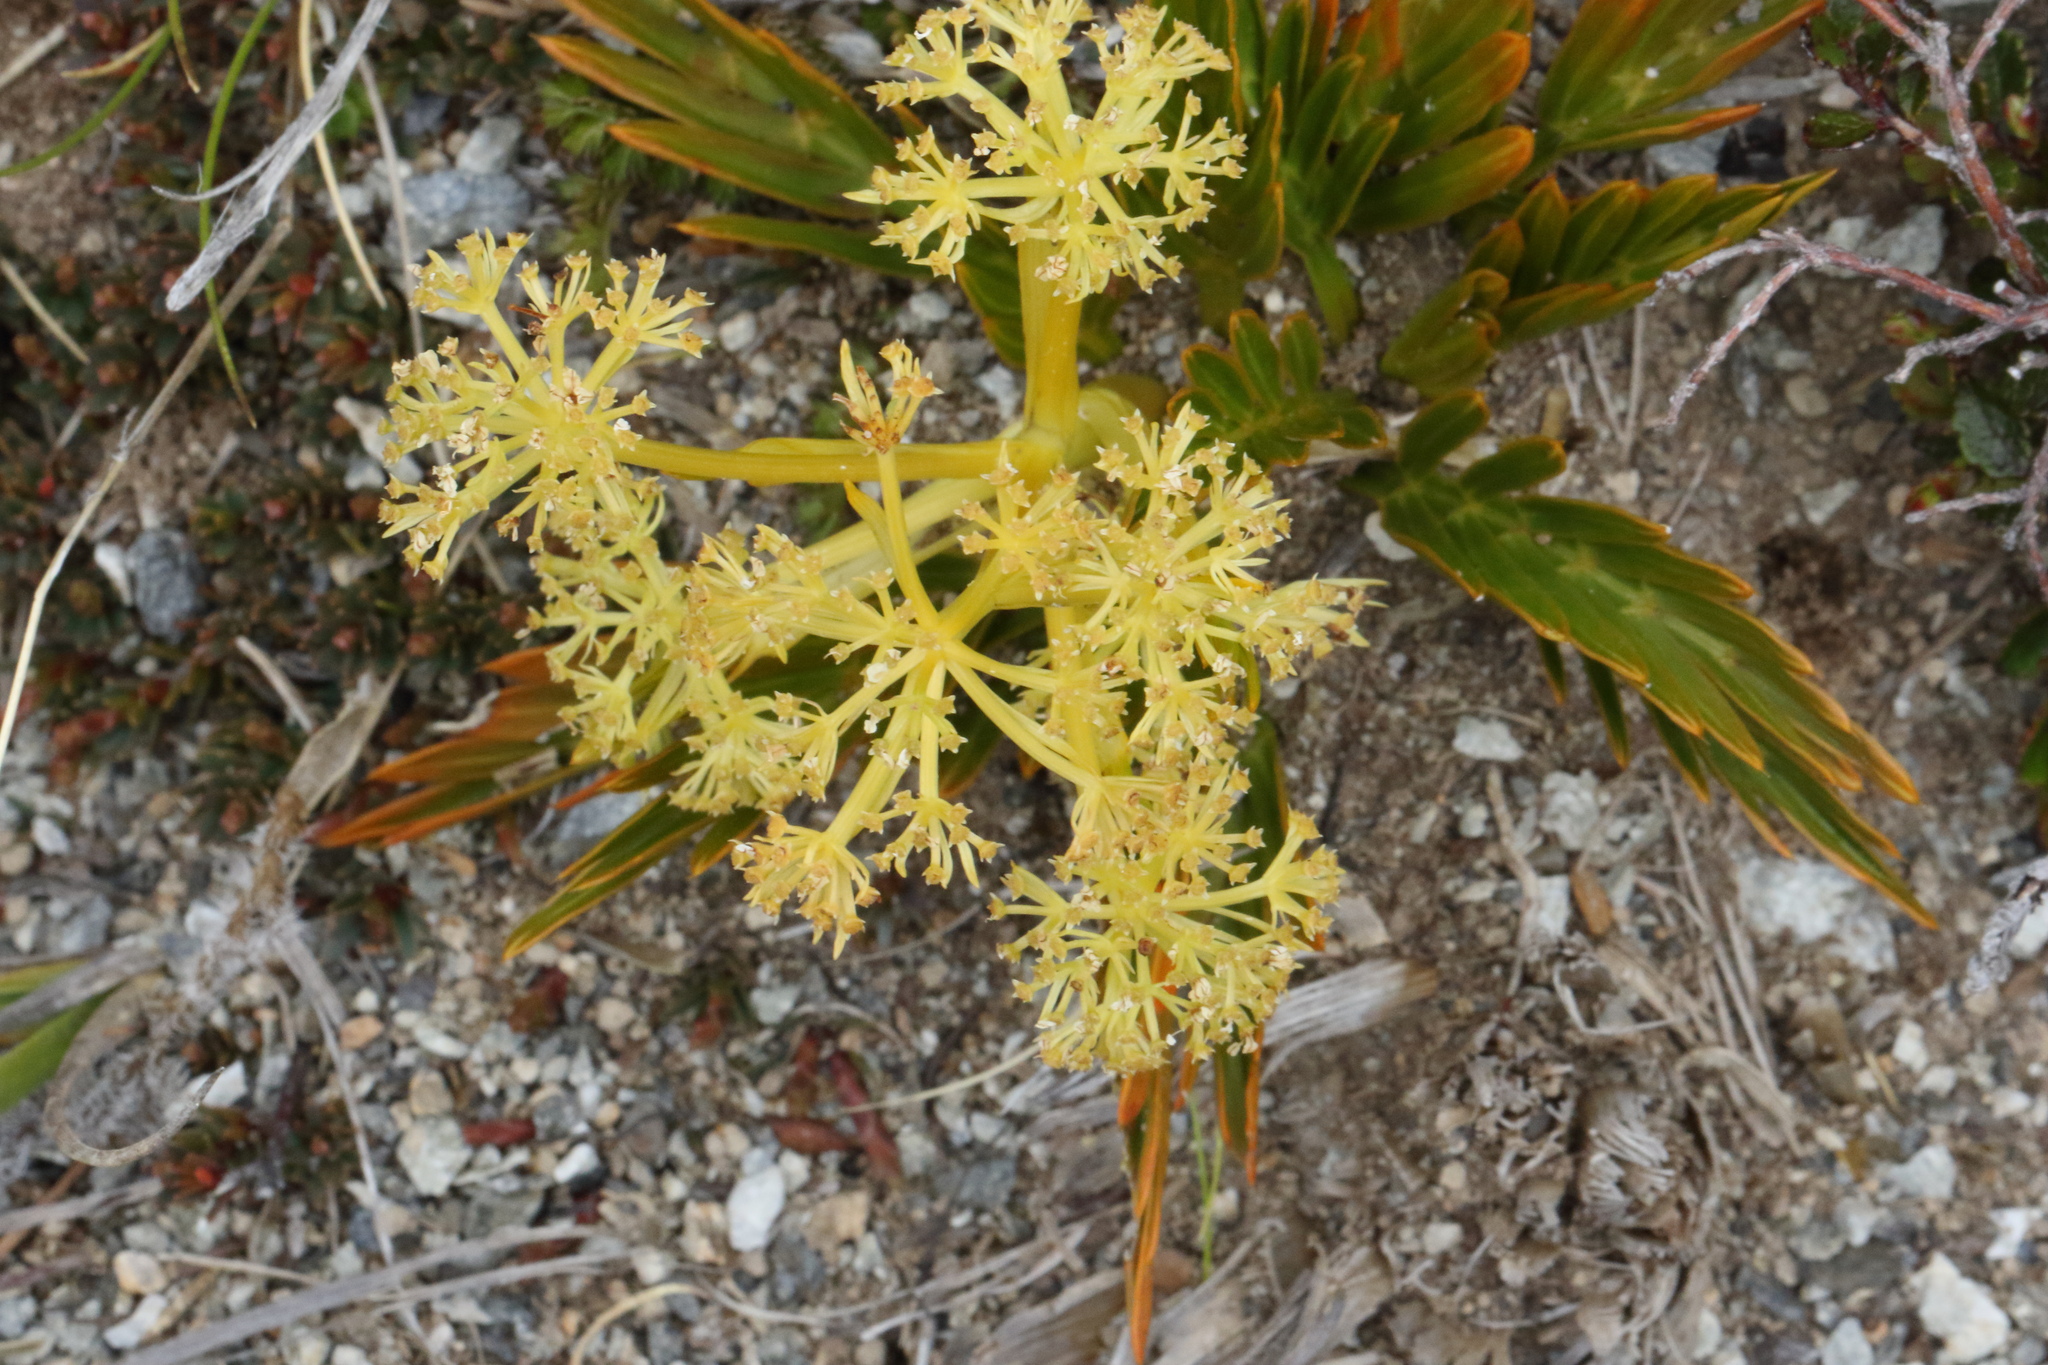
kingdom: Plantae
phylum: Tracheophyta
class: Magnoliopsida
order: Apiales
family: Apiaceae
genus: Aciphylla
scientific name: Aciphylla similis
